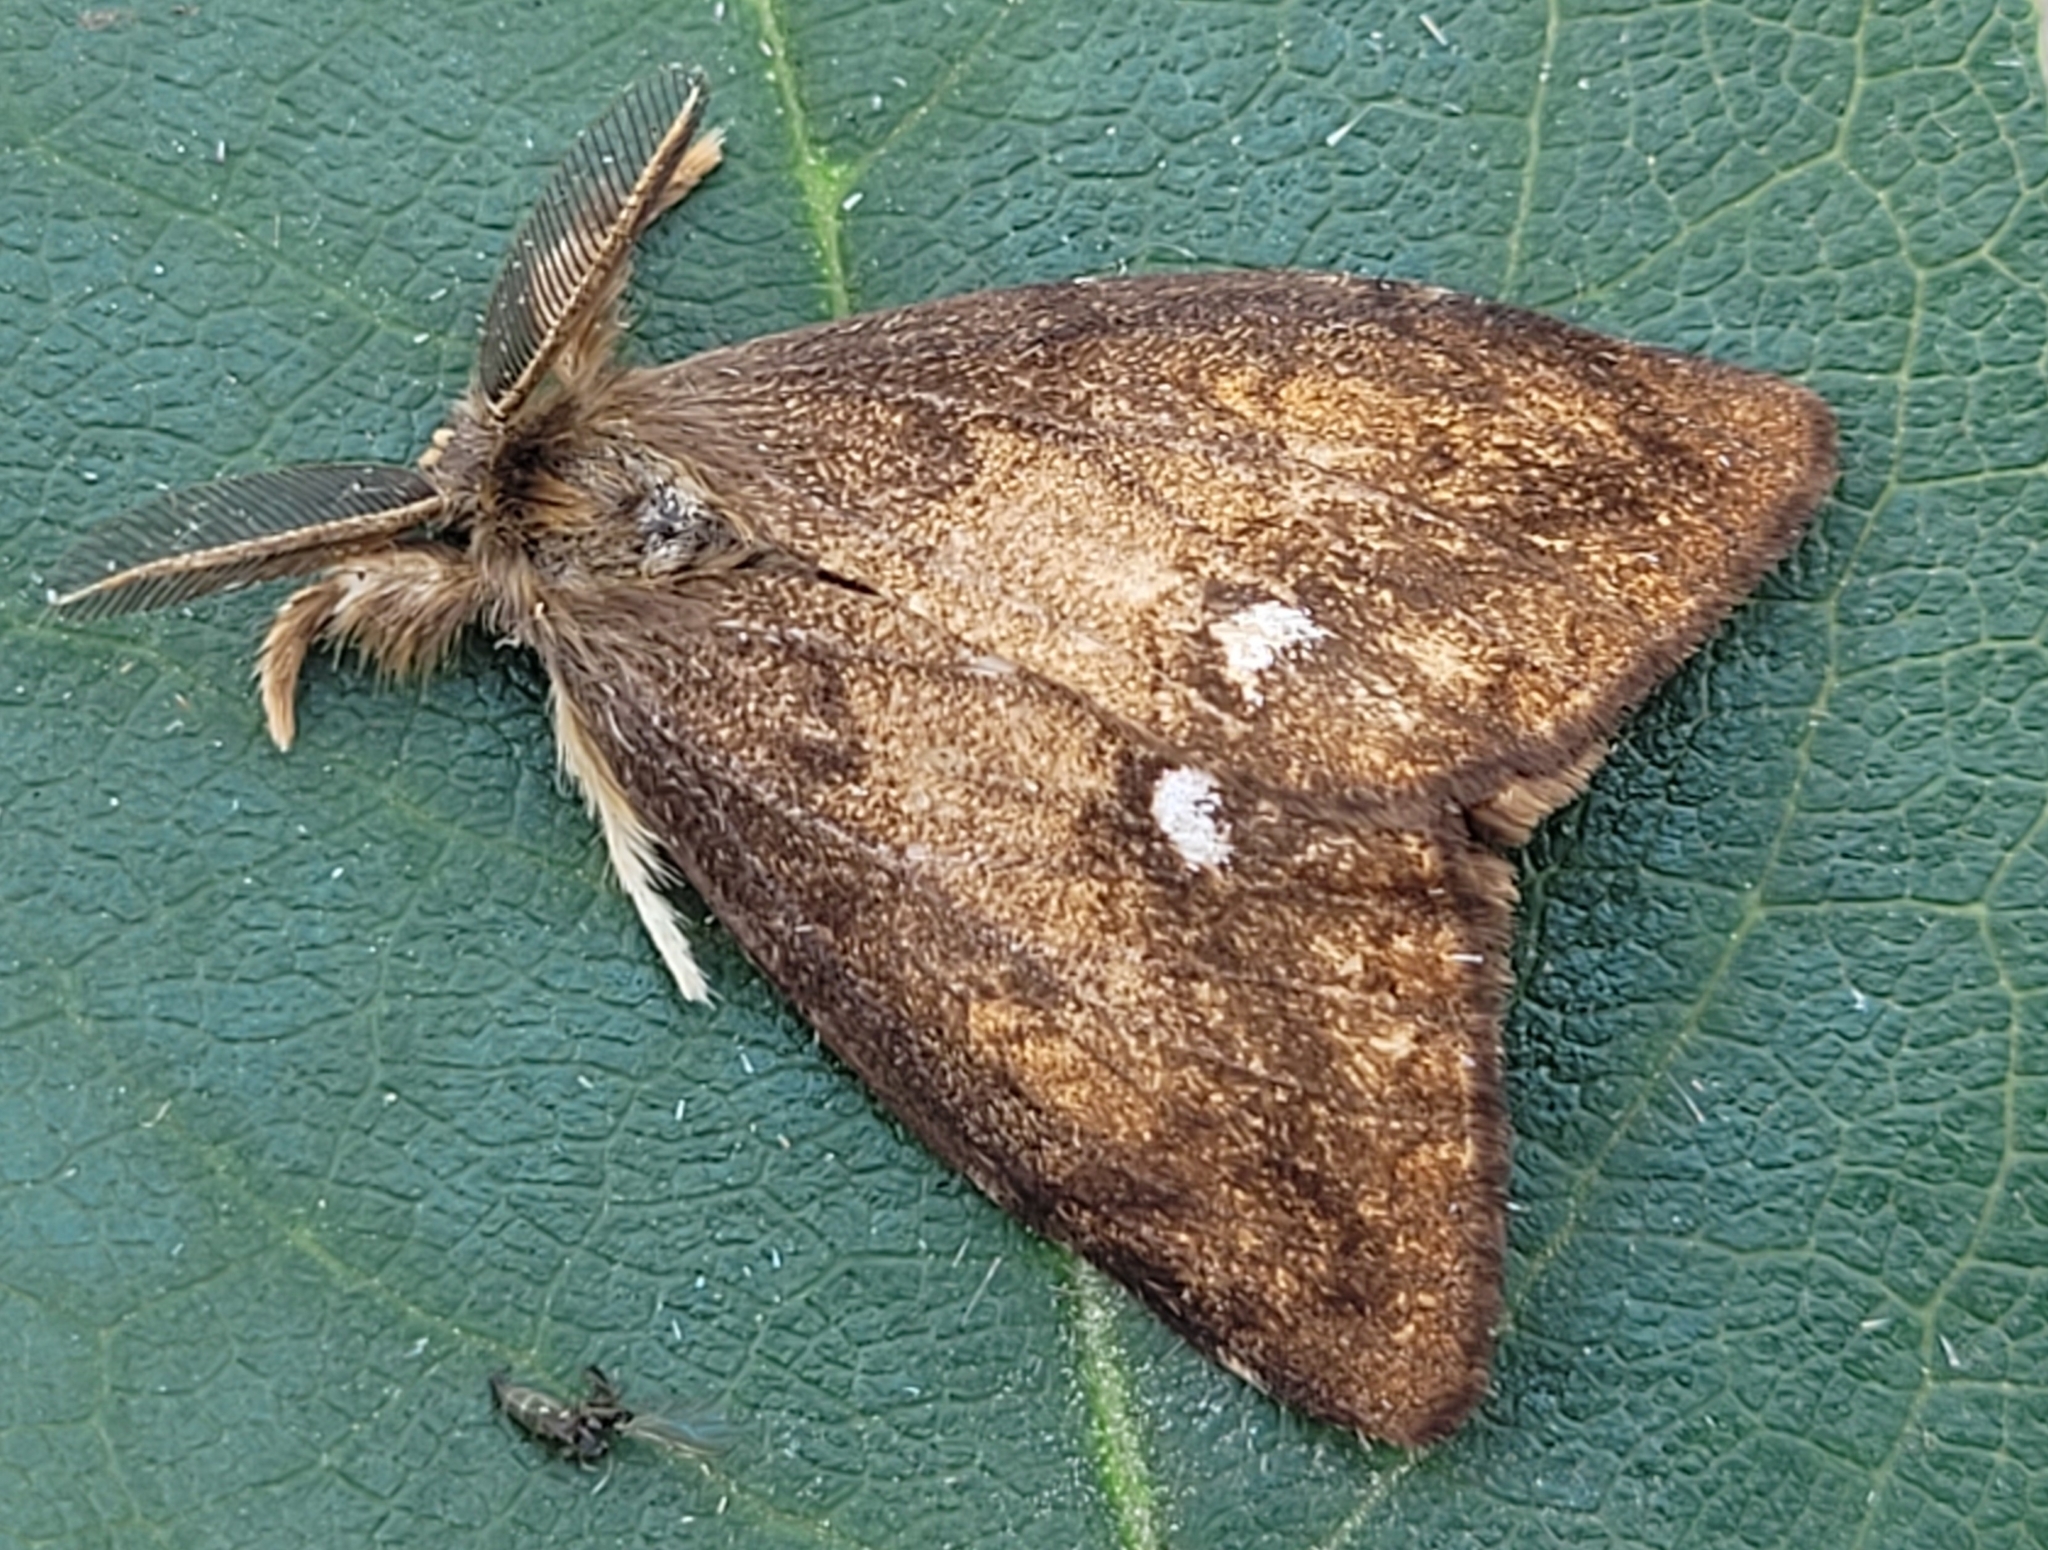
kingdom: Animalia
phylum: Arthropoda
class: Insecta
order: Lepidoptera
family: Erebidae
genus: Orgyia
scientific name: Orgyia antiqua
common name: Vapourer
